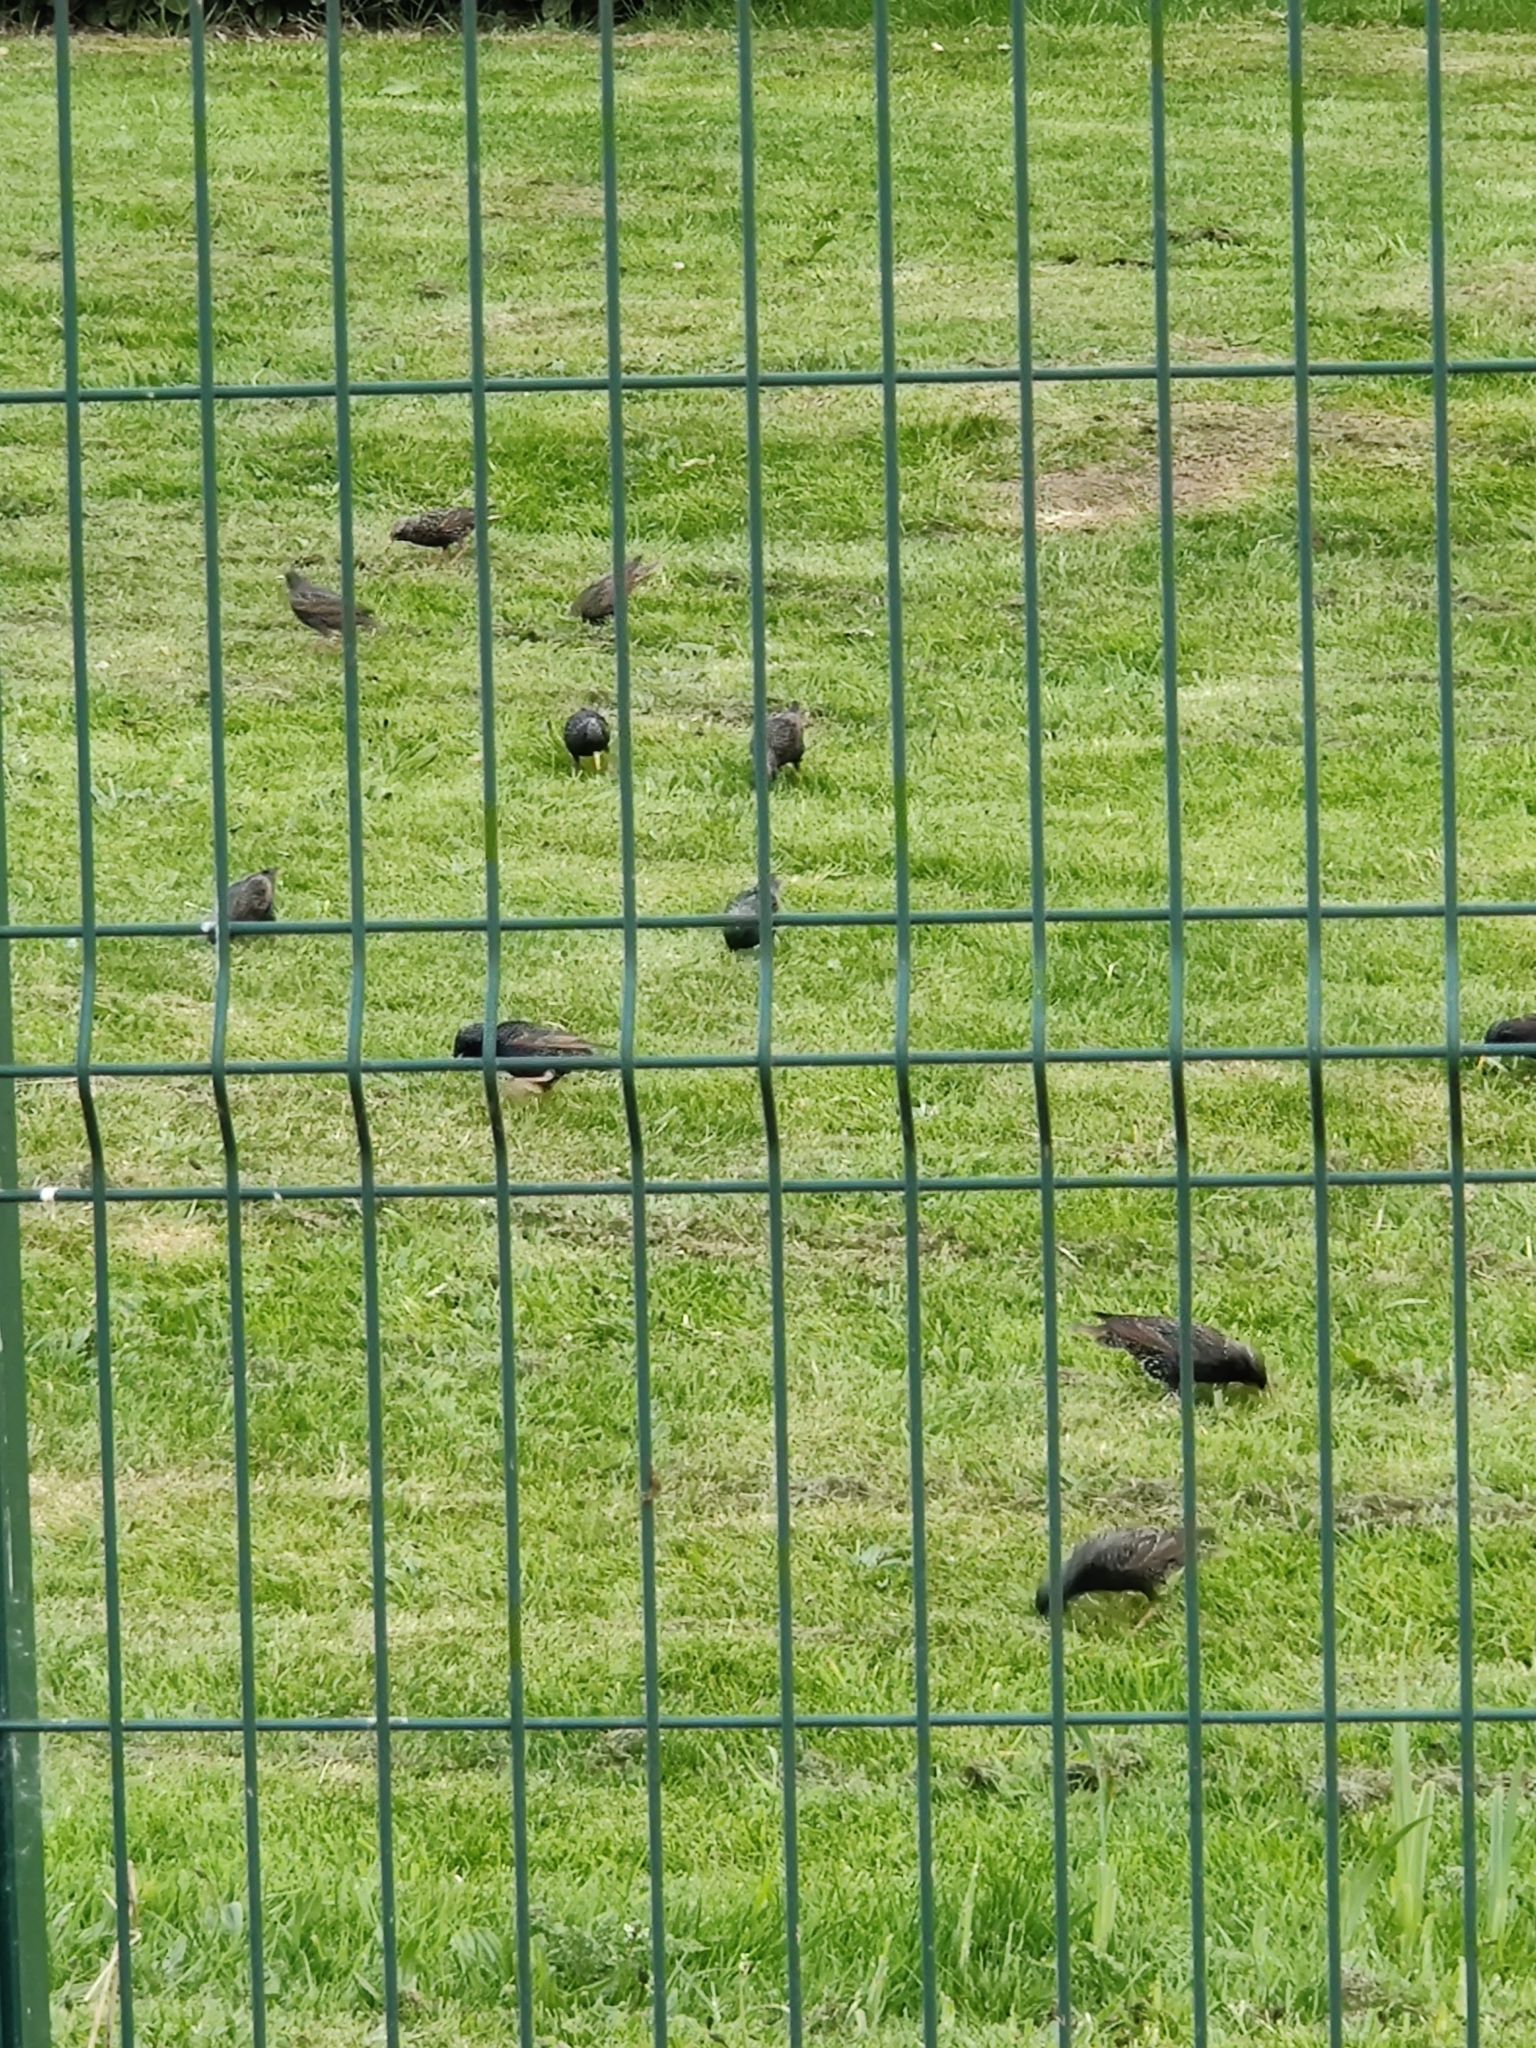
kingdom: Animalia
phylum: Chordata
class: Aves
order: Passeriformes
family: Sturnidae
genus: Sturnus
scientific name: Sturnus vulgaris
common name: Common starling
